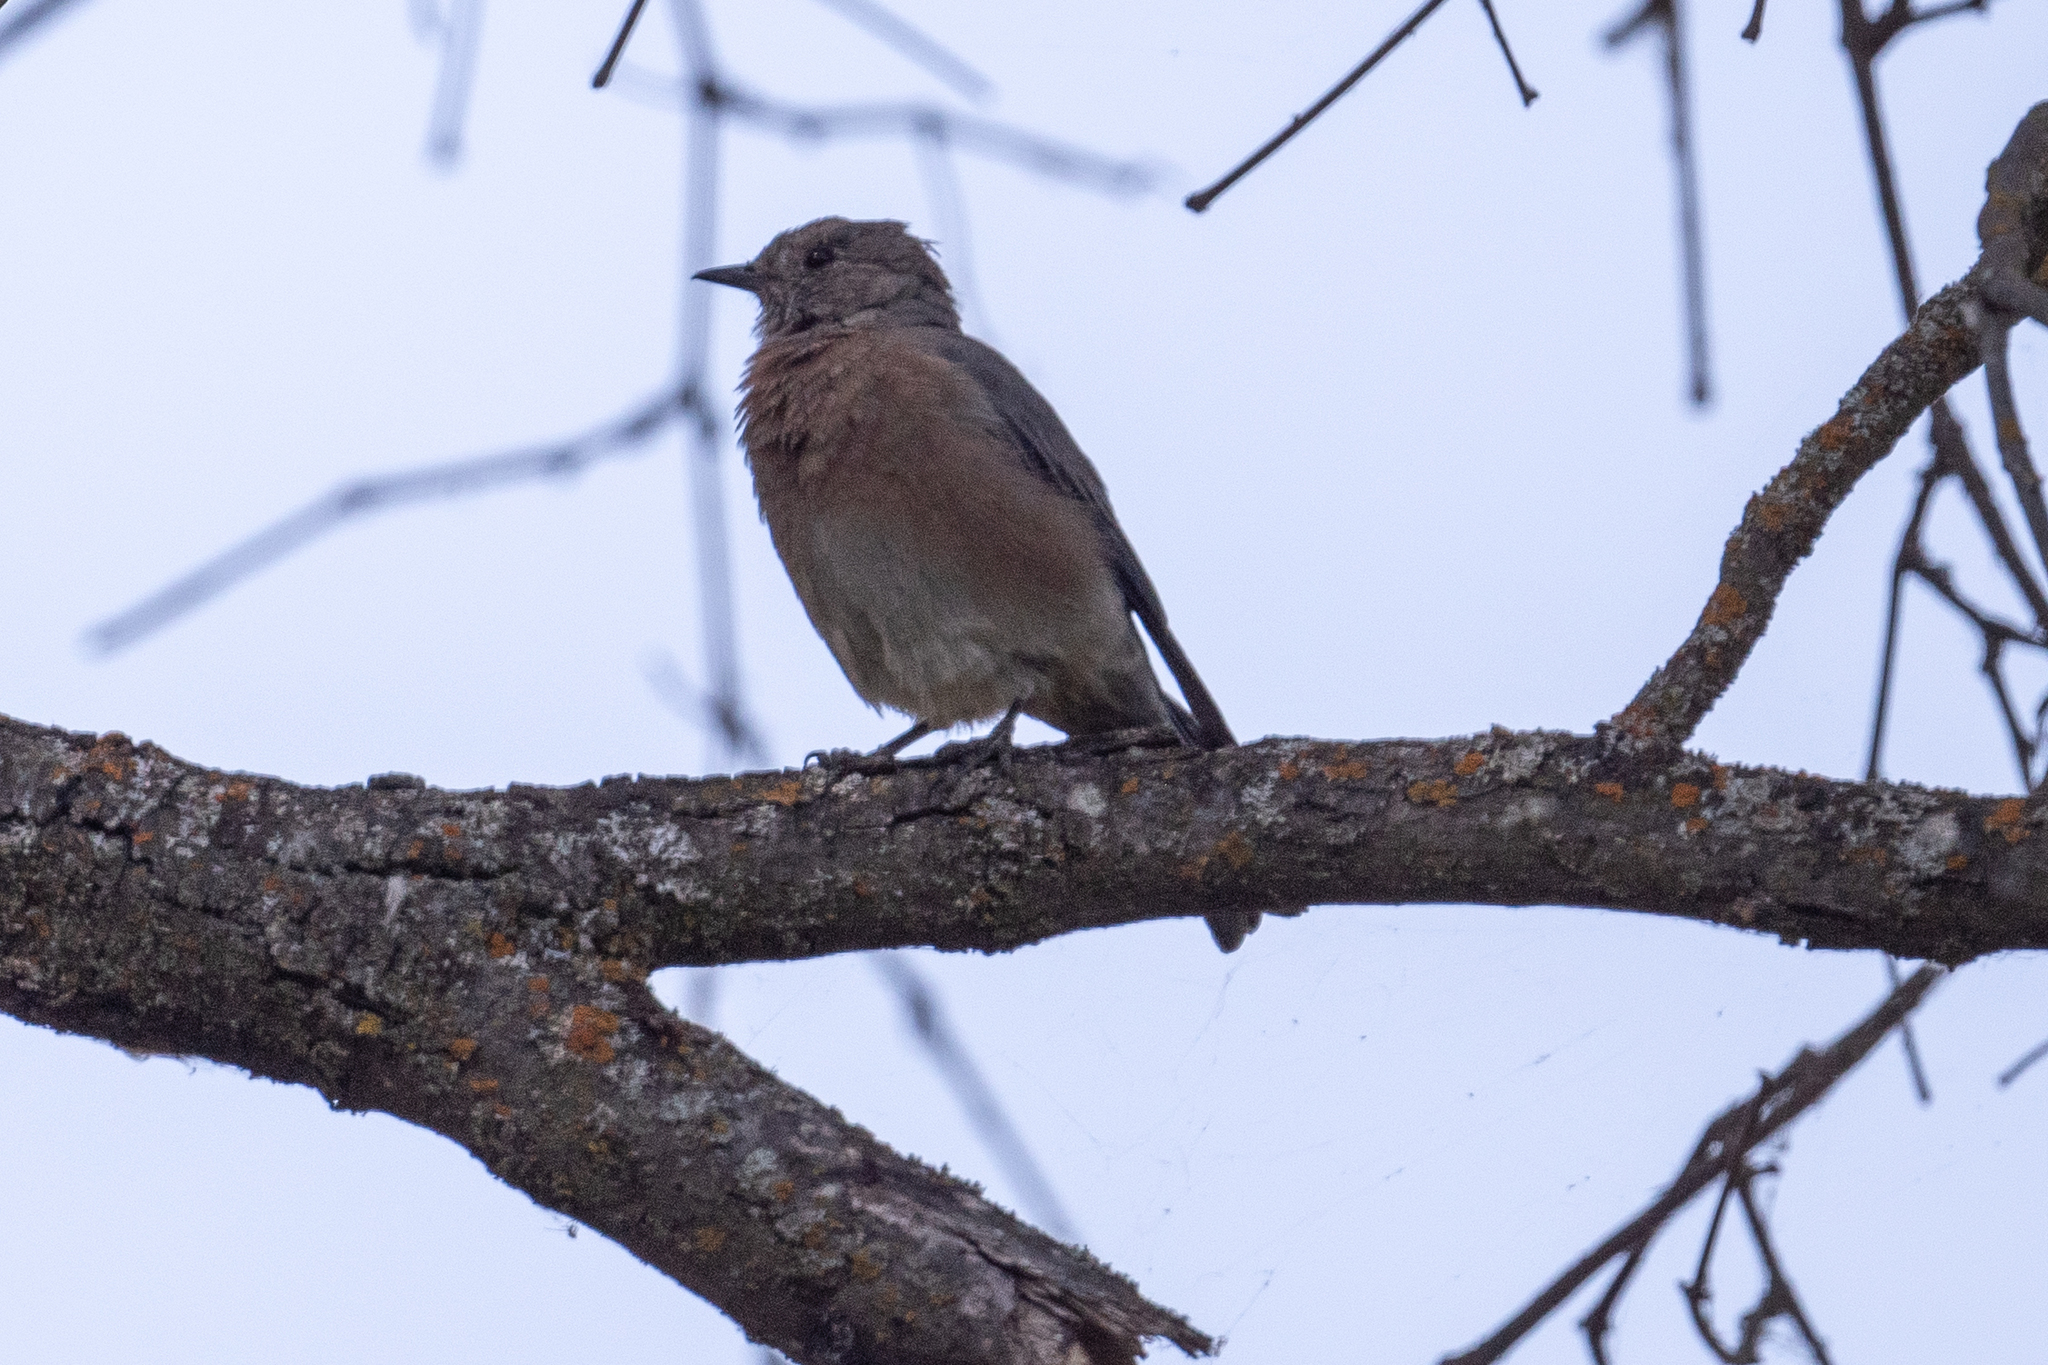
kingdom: Animalia
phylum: Chordata
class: Aves
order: Passeriformes
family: Turdidae
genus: Sialia
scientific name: Sialia mexicana
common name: Western bluebird
